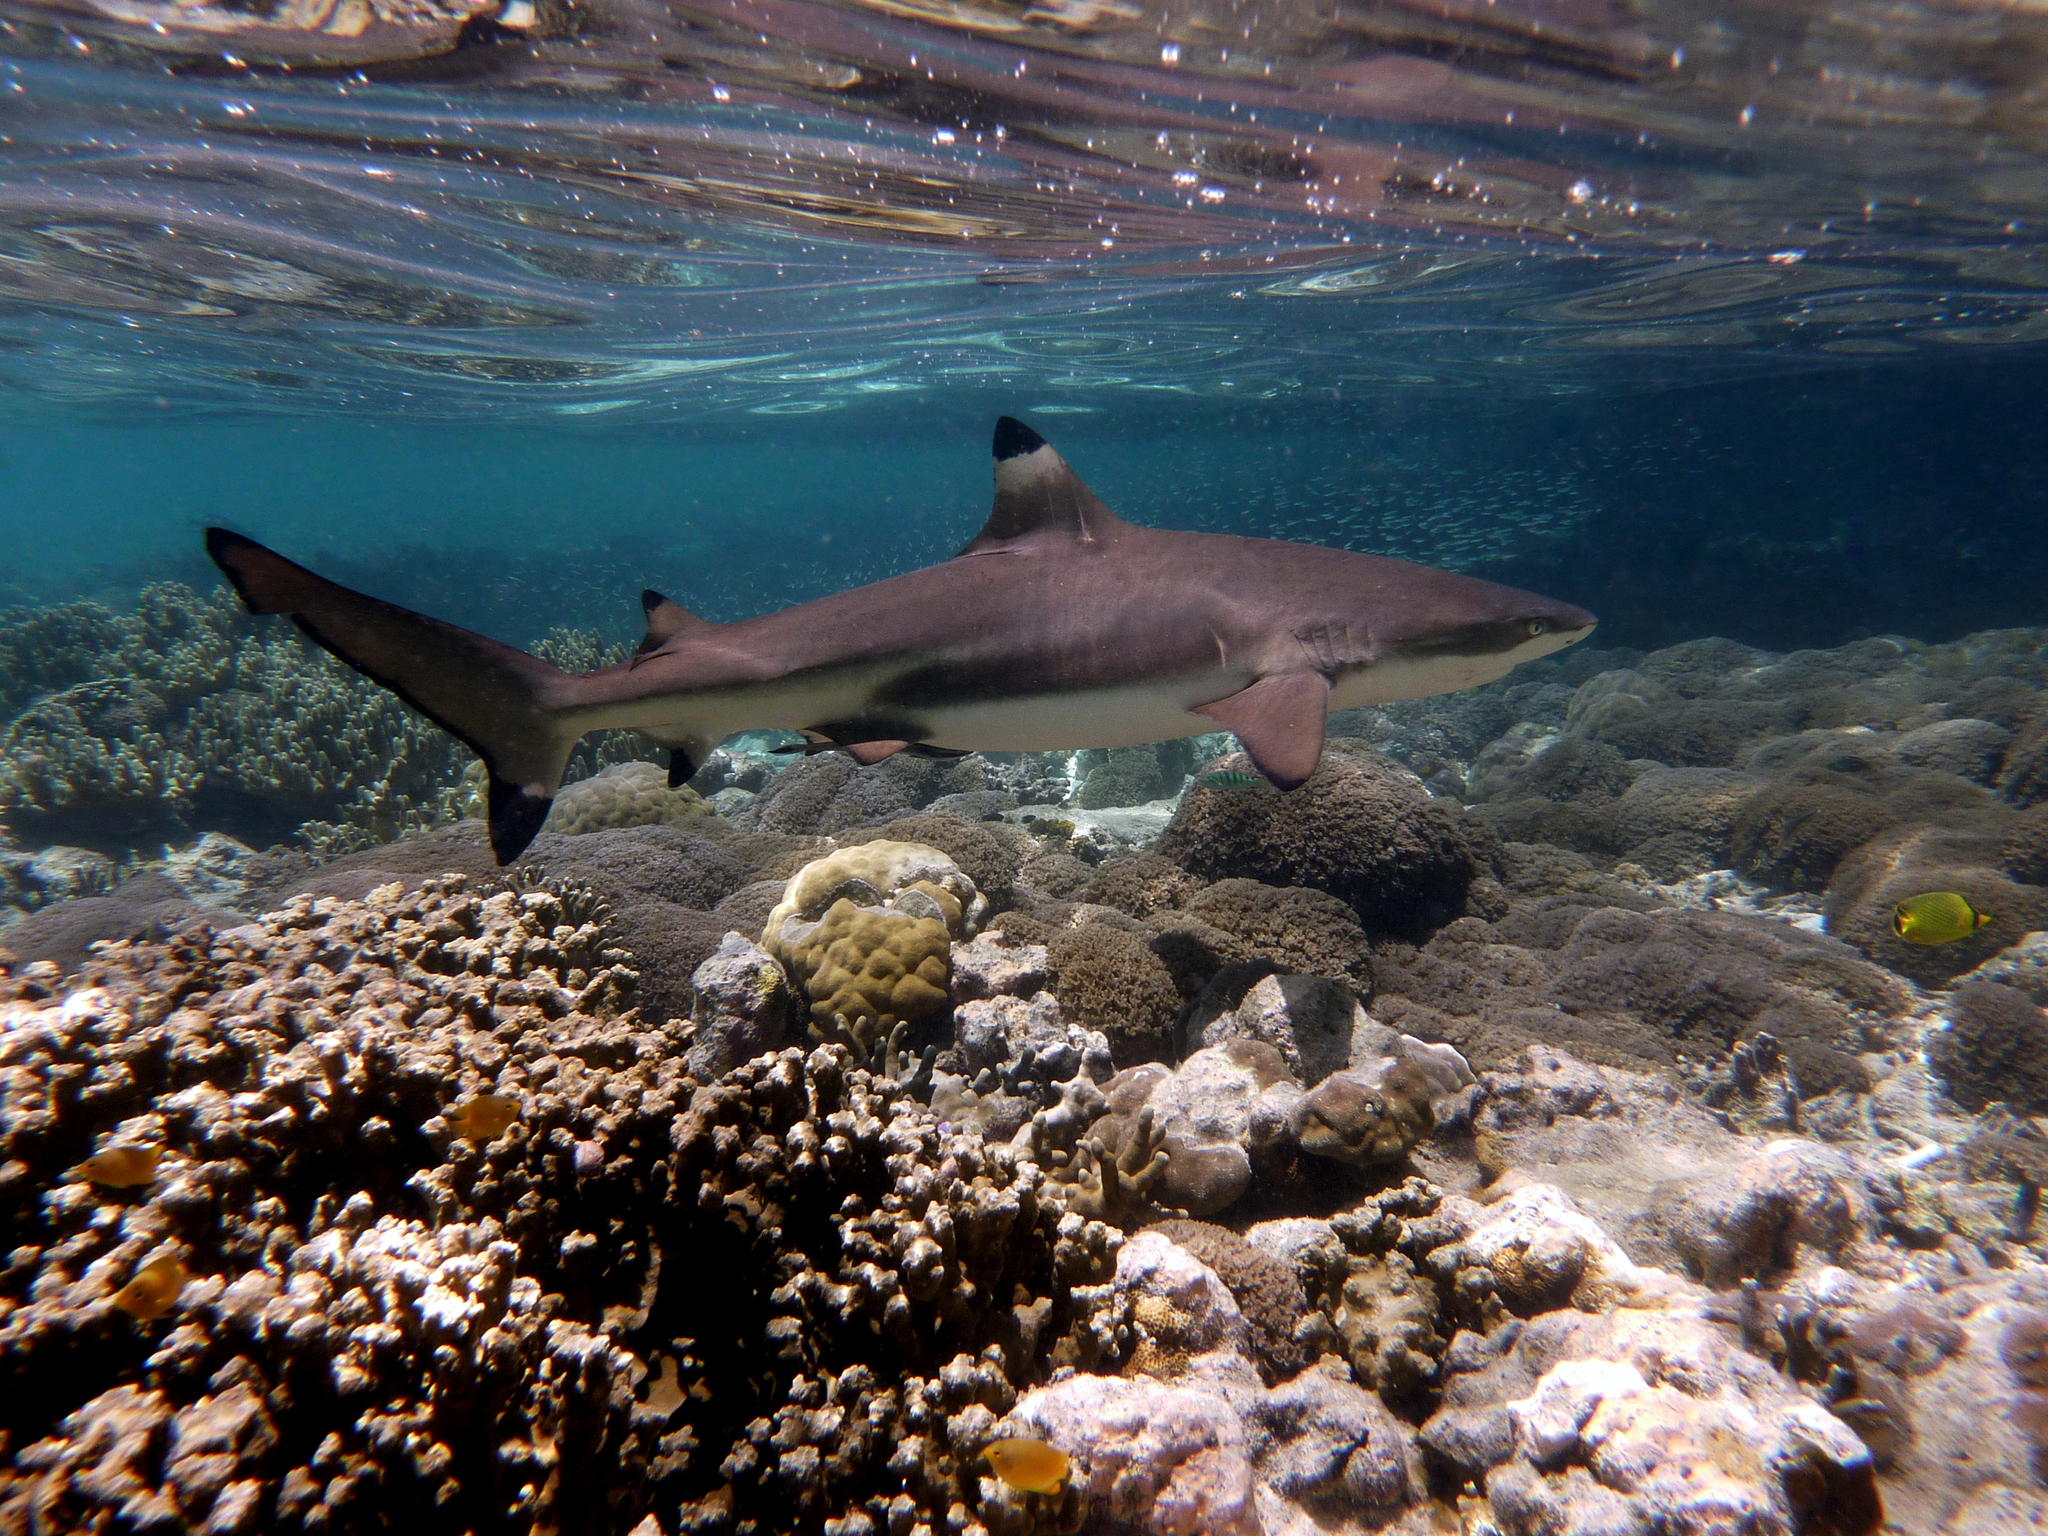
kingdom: Animalia
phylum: Chordata
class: Elasmobranchii
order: Carcharhiniformes
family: Carcharhinidae
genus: Carcharhinus
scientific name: Carcharhinus melanopterus
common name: Blacktip reef shark
